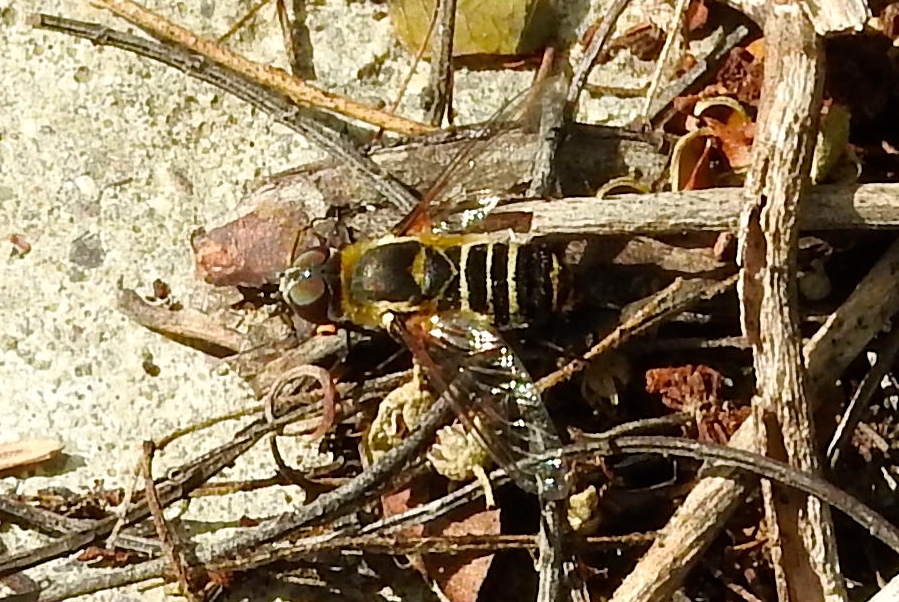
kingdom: Animalia
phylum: Arthropoda
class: Insecta
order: Diptera
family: Bombyliidae
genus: Villa
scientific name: Villa
